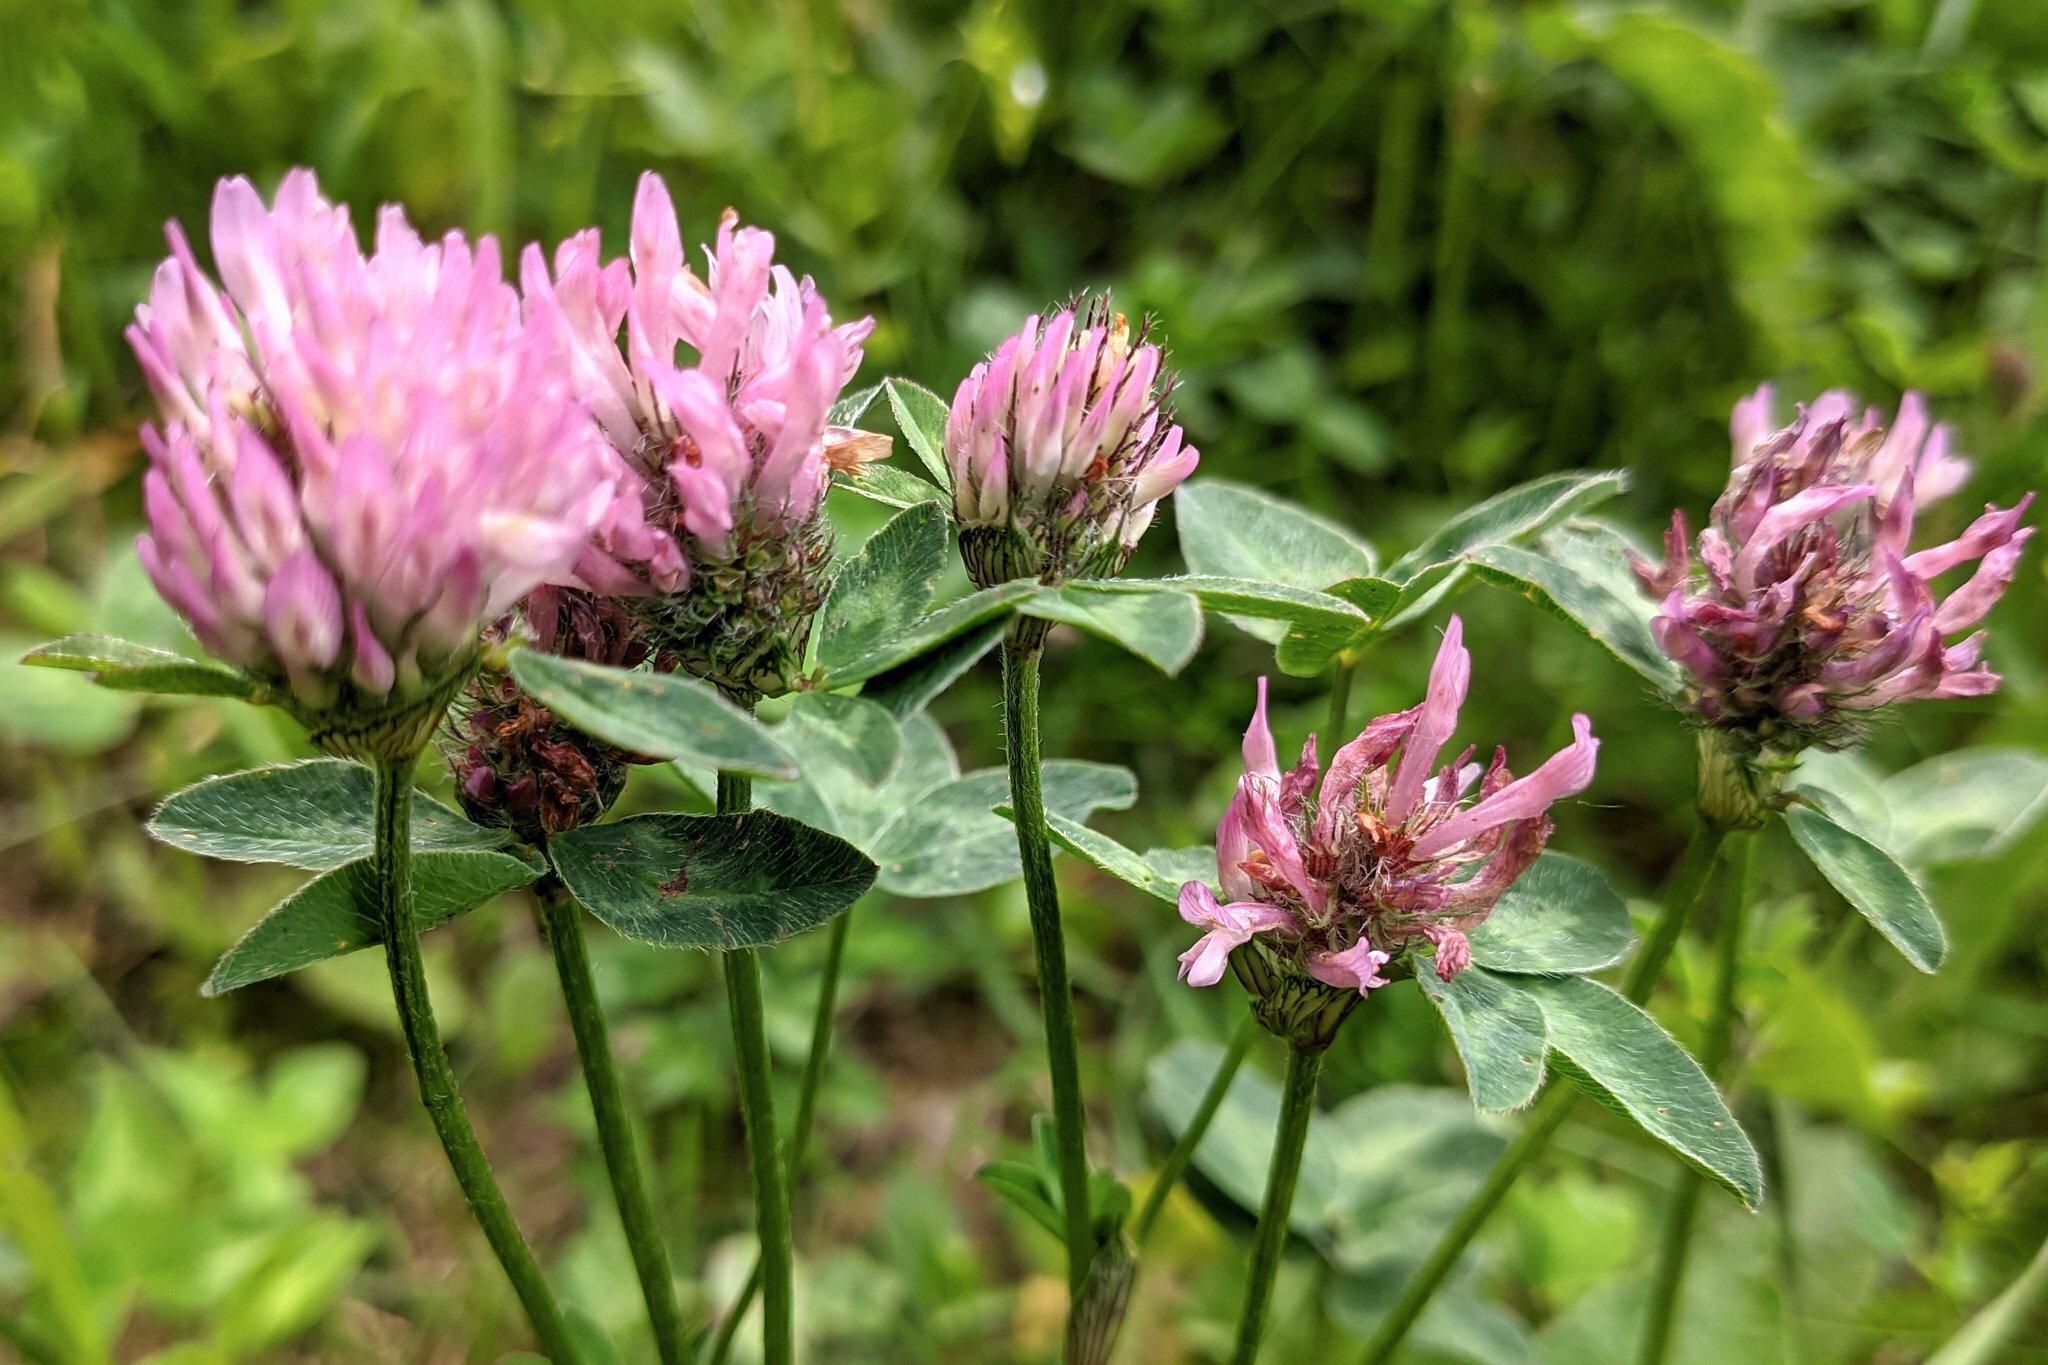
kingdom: Plantae
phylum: Tracheophyta
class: Magnoliopsida
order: Fabales
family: Fabaceae
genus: Trifolium
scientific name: Trifolium pratense
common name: Red clover
